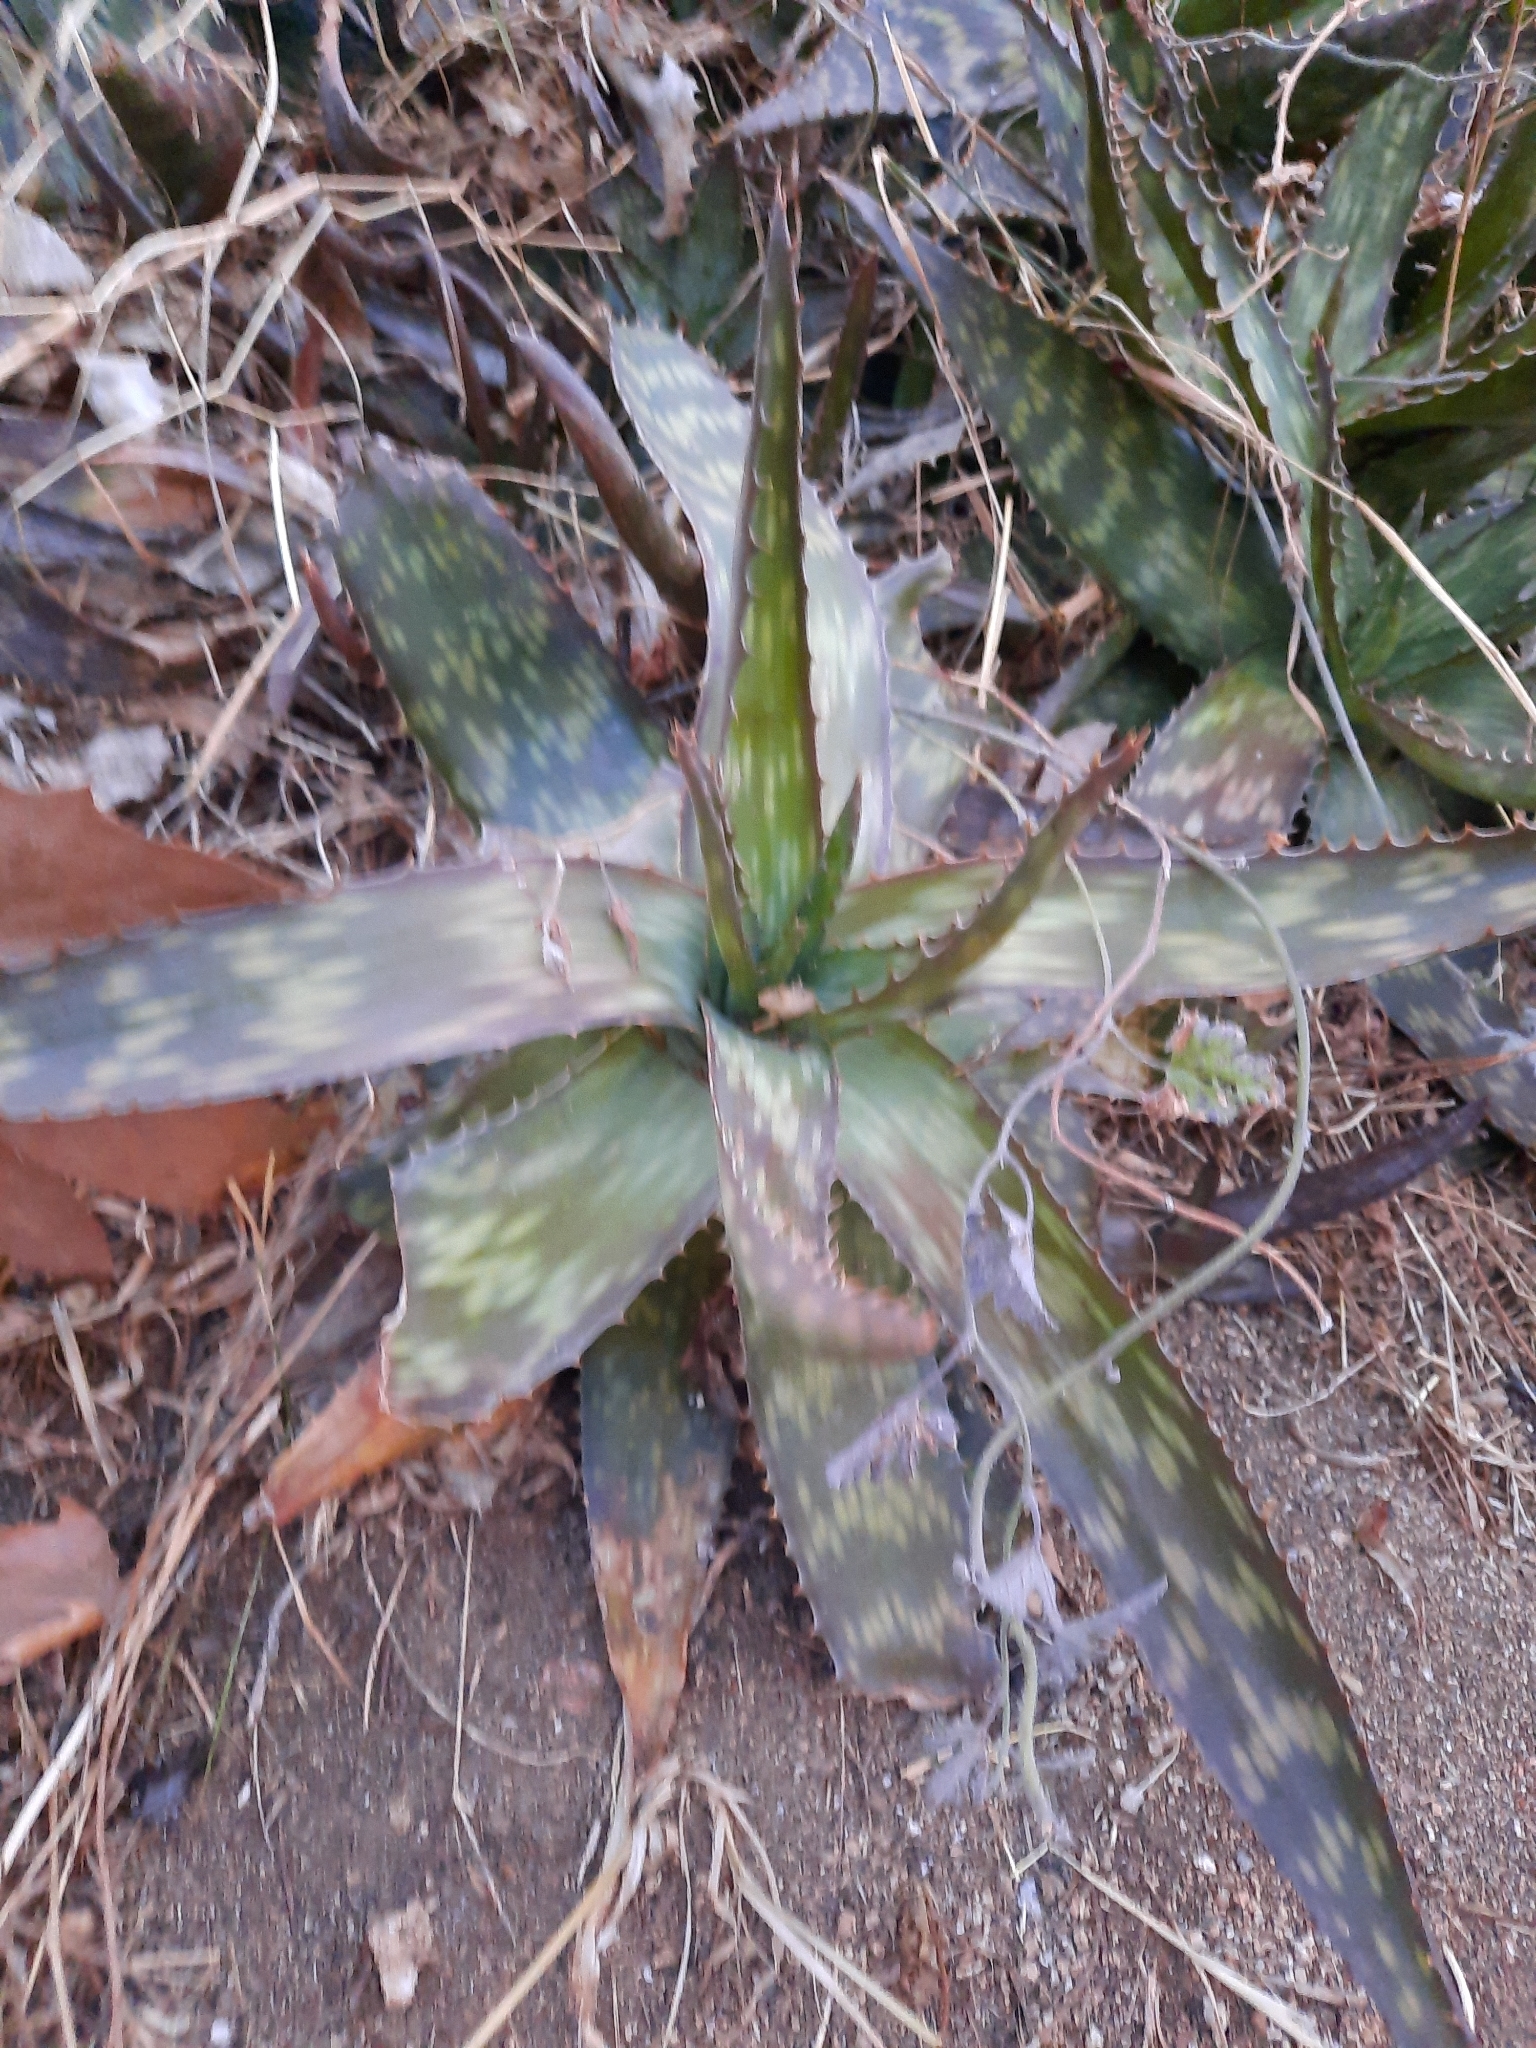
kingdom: Plantae
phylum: Tracheophyta
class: Liliopsida
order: Asparagales
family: Asphodelaceae
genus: Aloe
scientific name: Aloe maculata
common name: Broadleaf aloe
